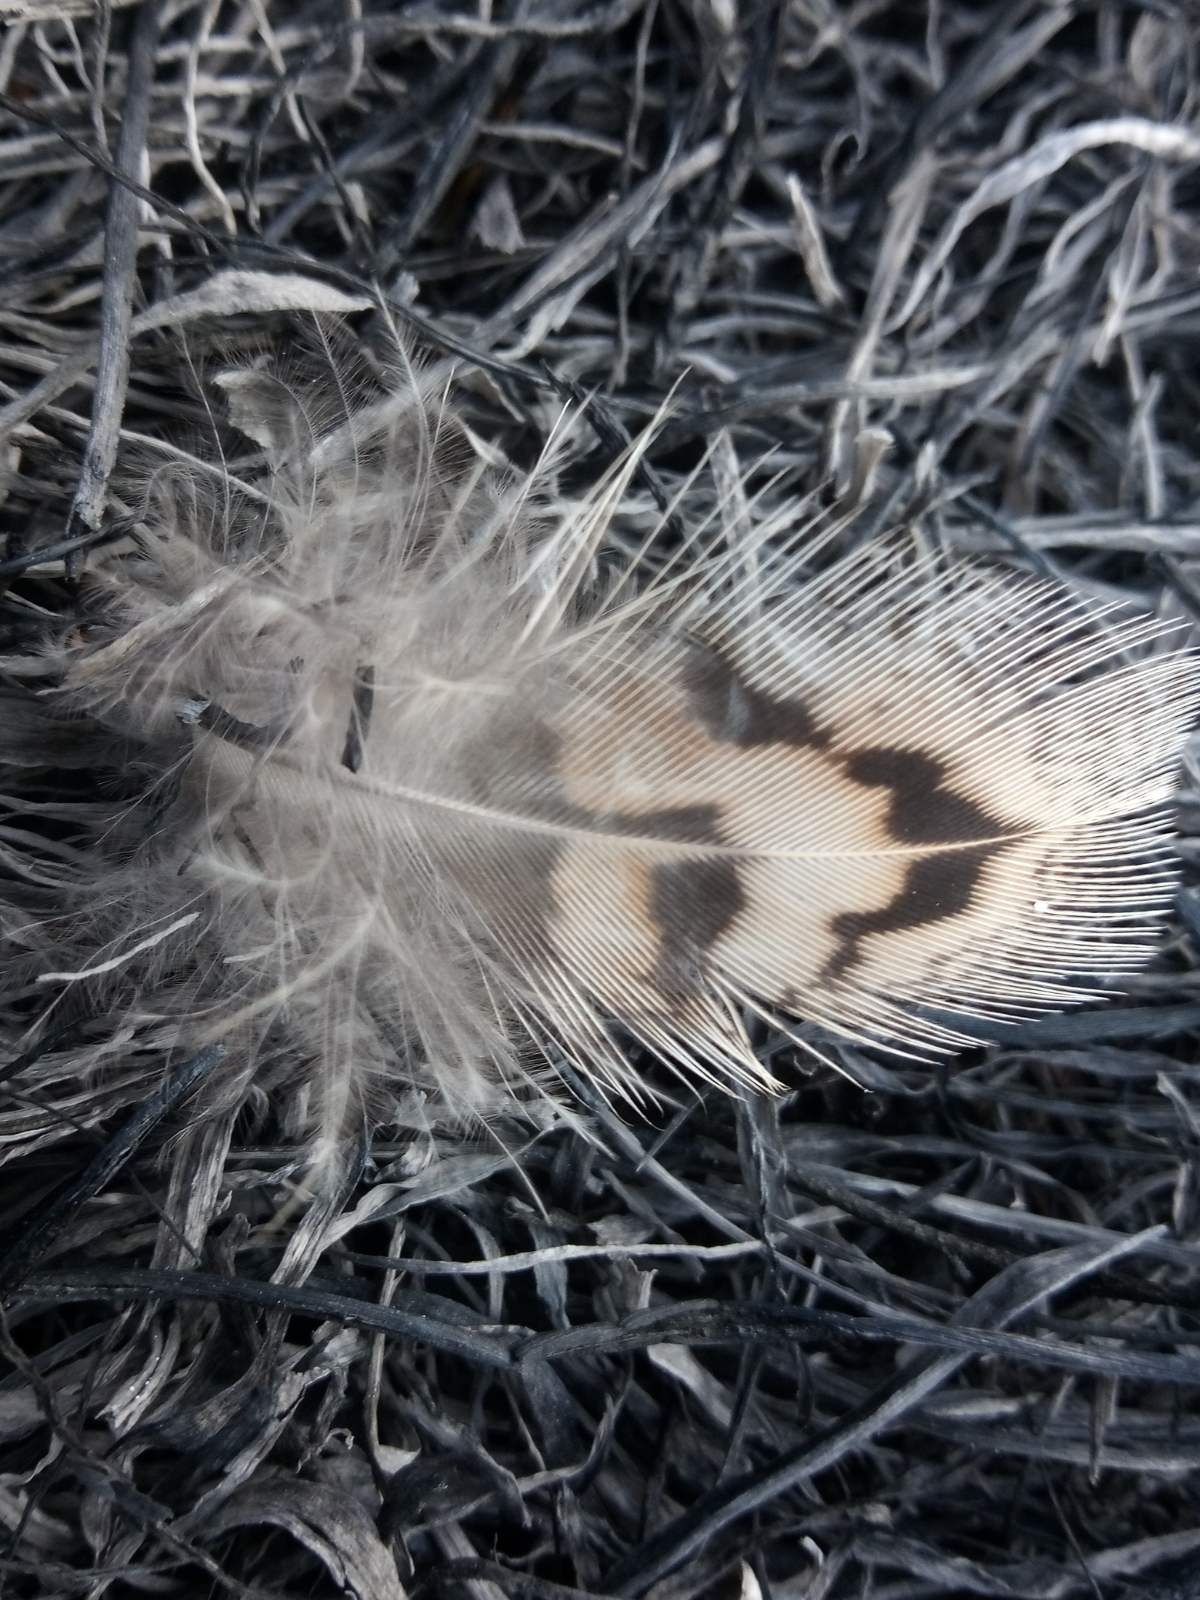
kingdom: Animalia
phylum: Chordata
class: Aves
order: Galliformes
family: Phasianidae
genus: Phasianus
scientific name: Phasianus colchicus
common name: Common pheasant
